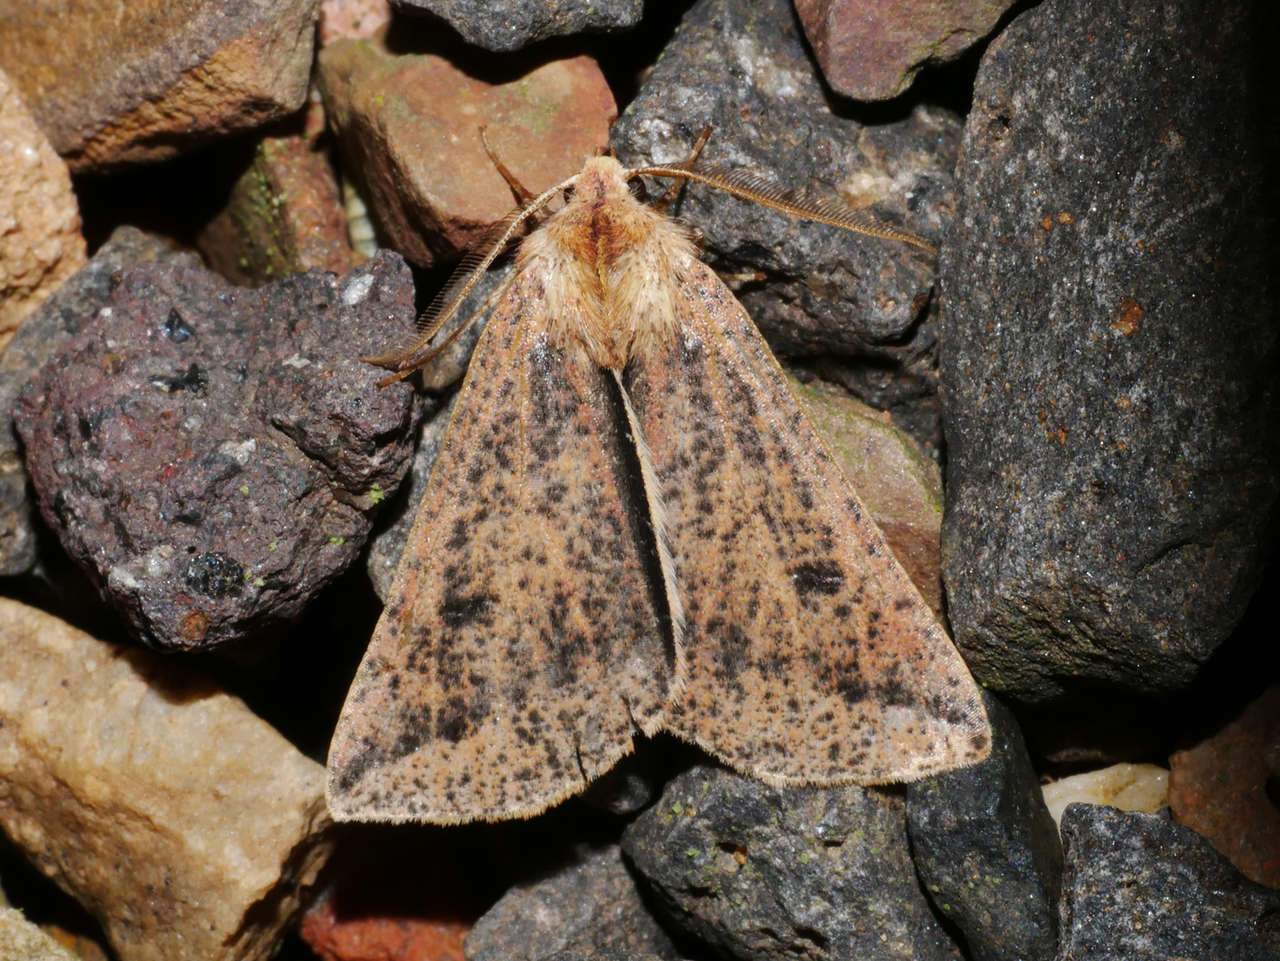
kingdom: Animalia
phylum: Arthropoda
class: Insecta
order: Lepidoptera
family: Geometridae
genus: Cycloprorodes
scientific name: Cycloprorodes melanoxysta
